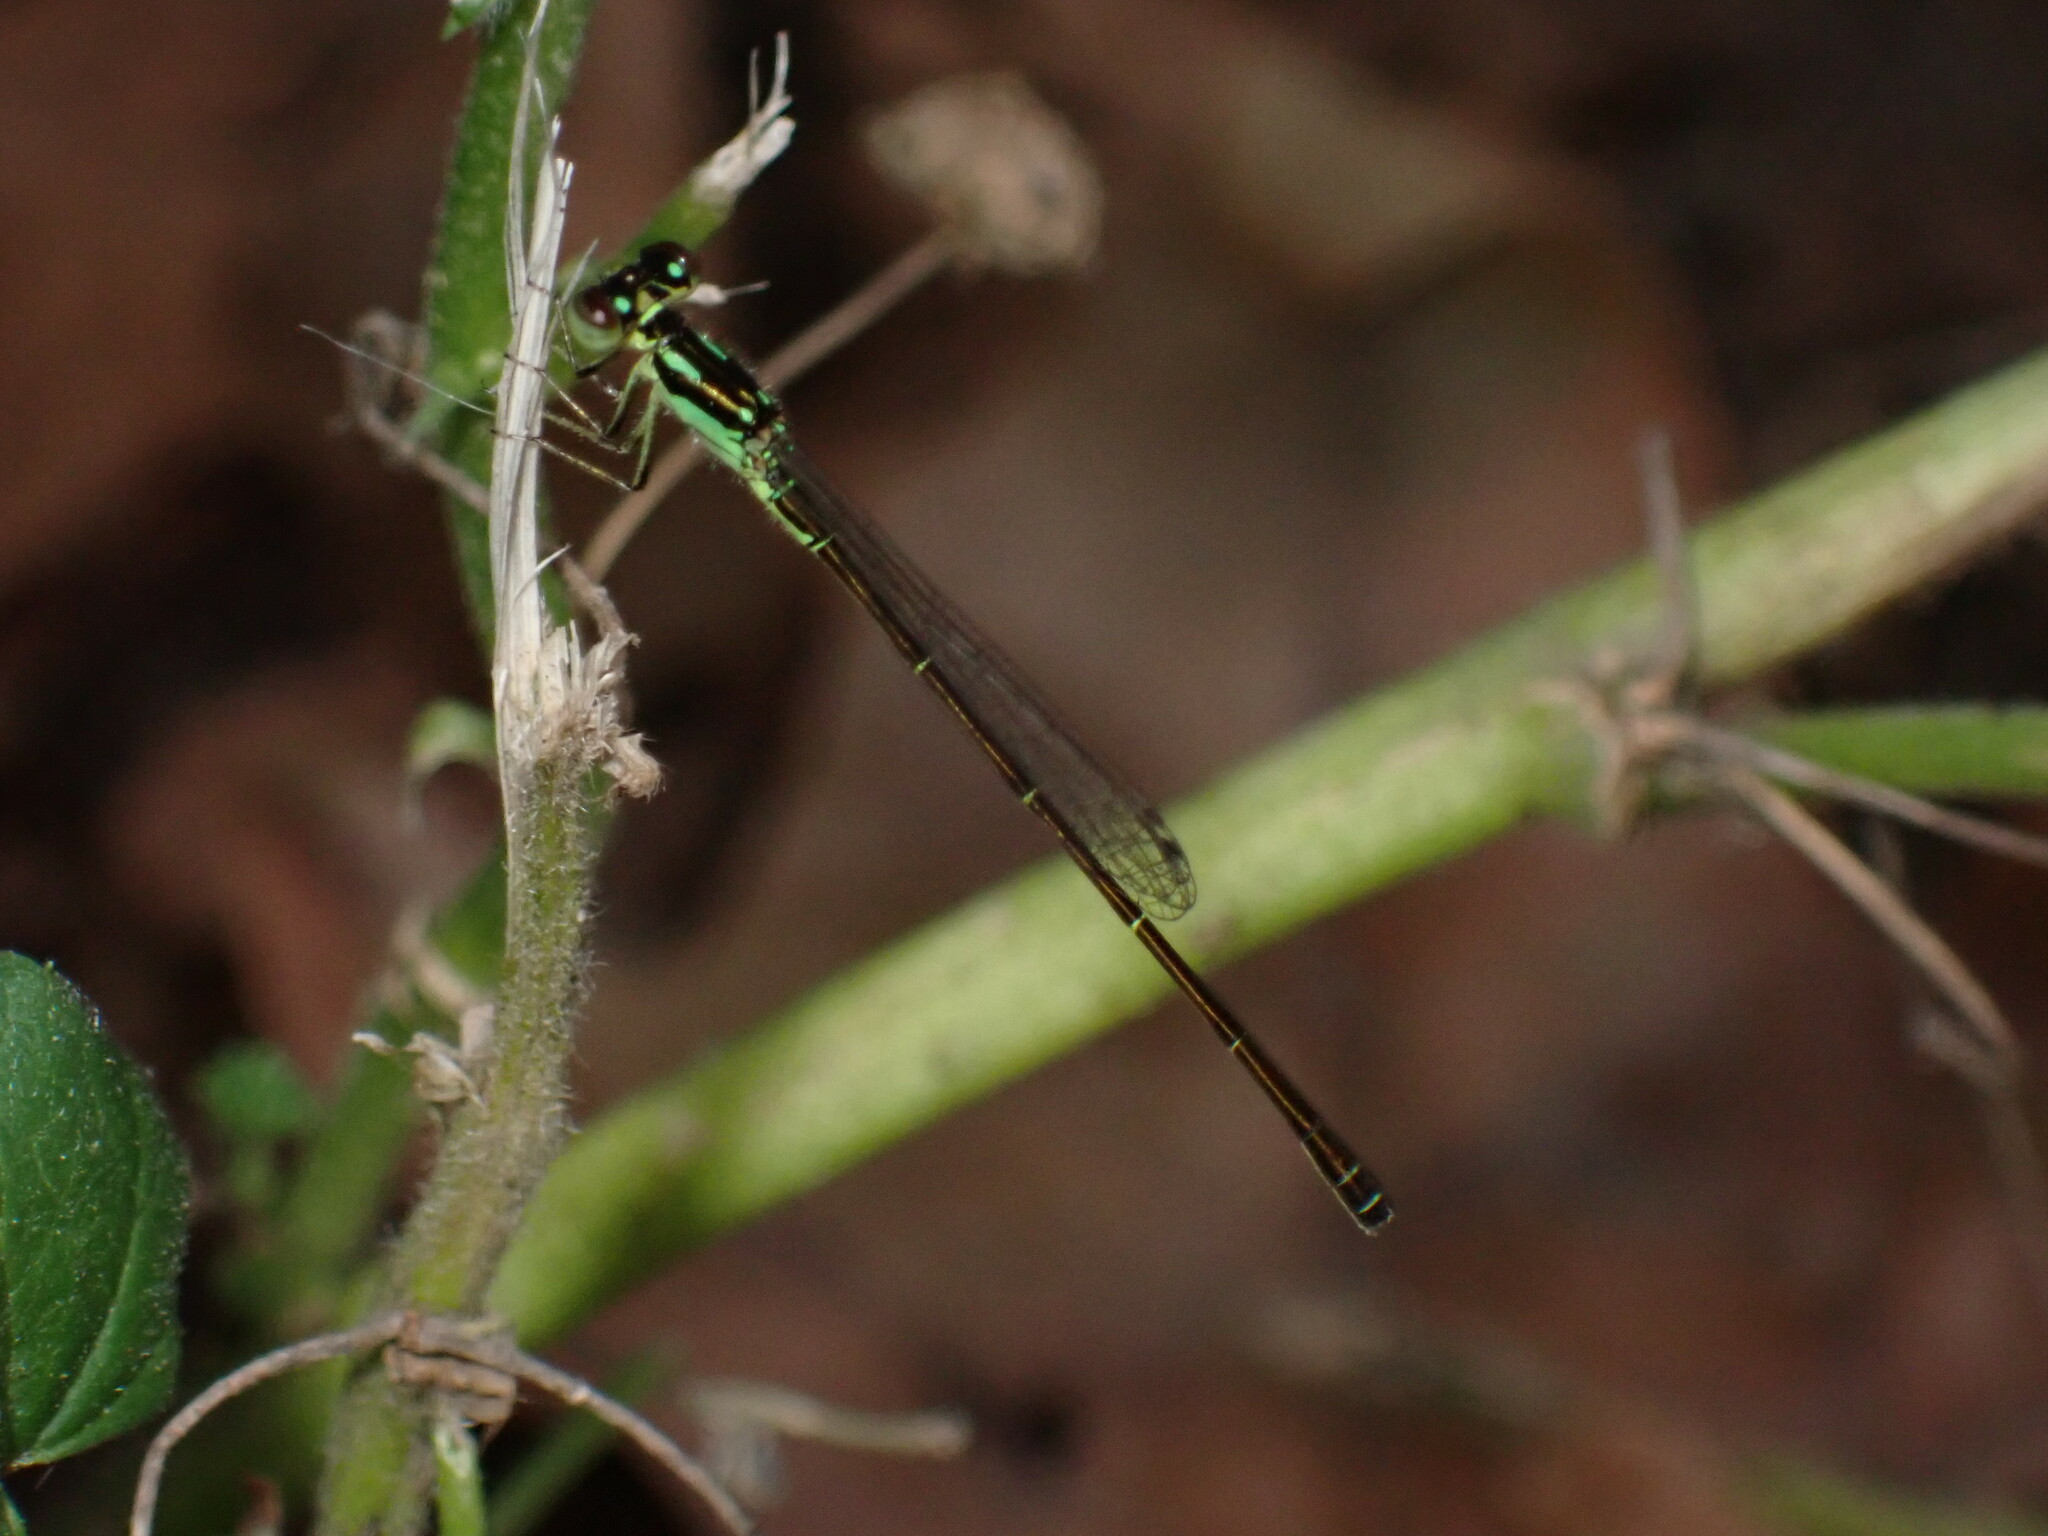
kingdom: Animalia
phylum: Arthropoda
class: Insecta
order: Odonata
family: Coenagrionidae
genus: Ischnura
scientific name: Ischnura posita
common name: Fragile forktail
